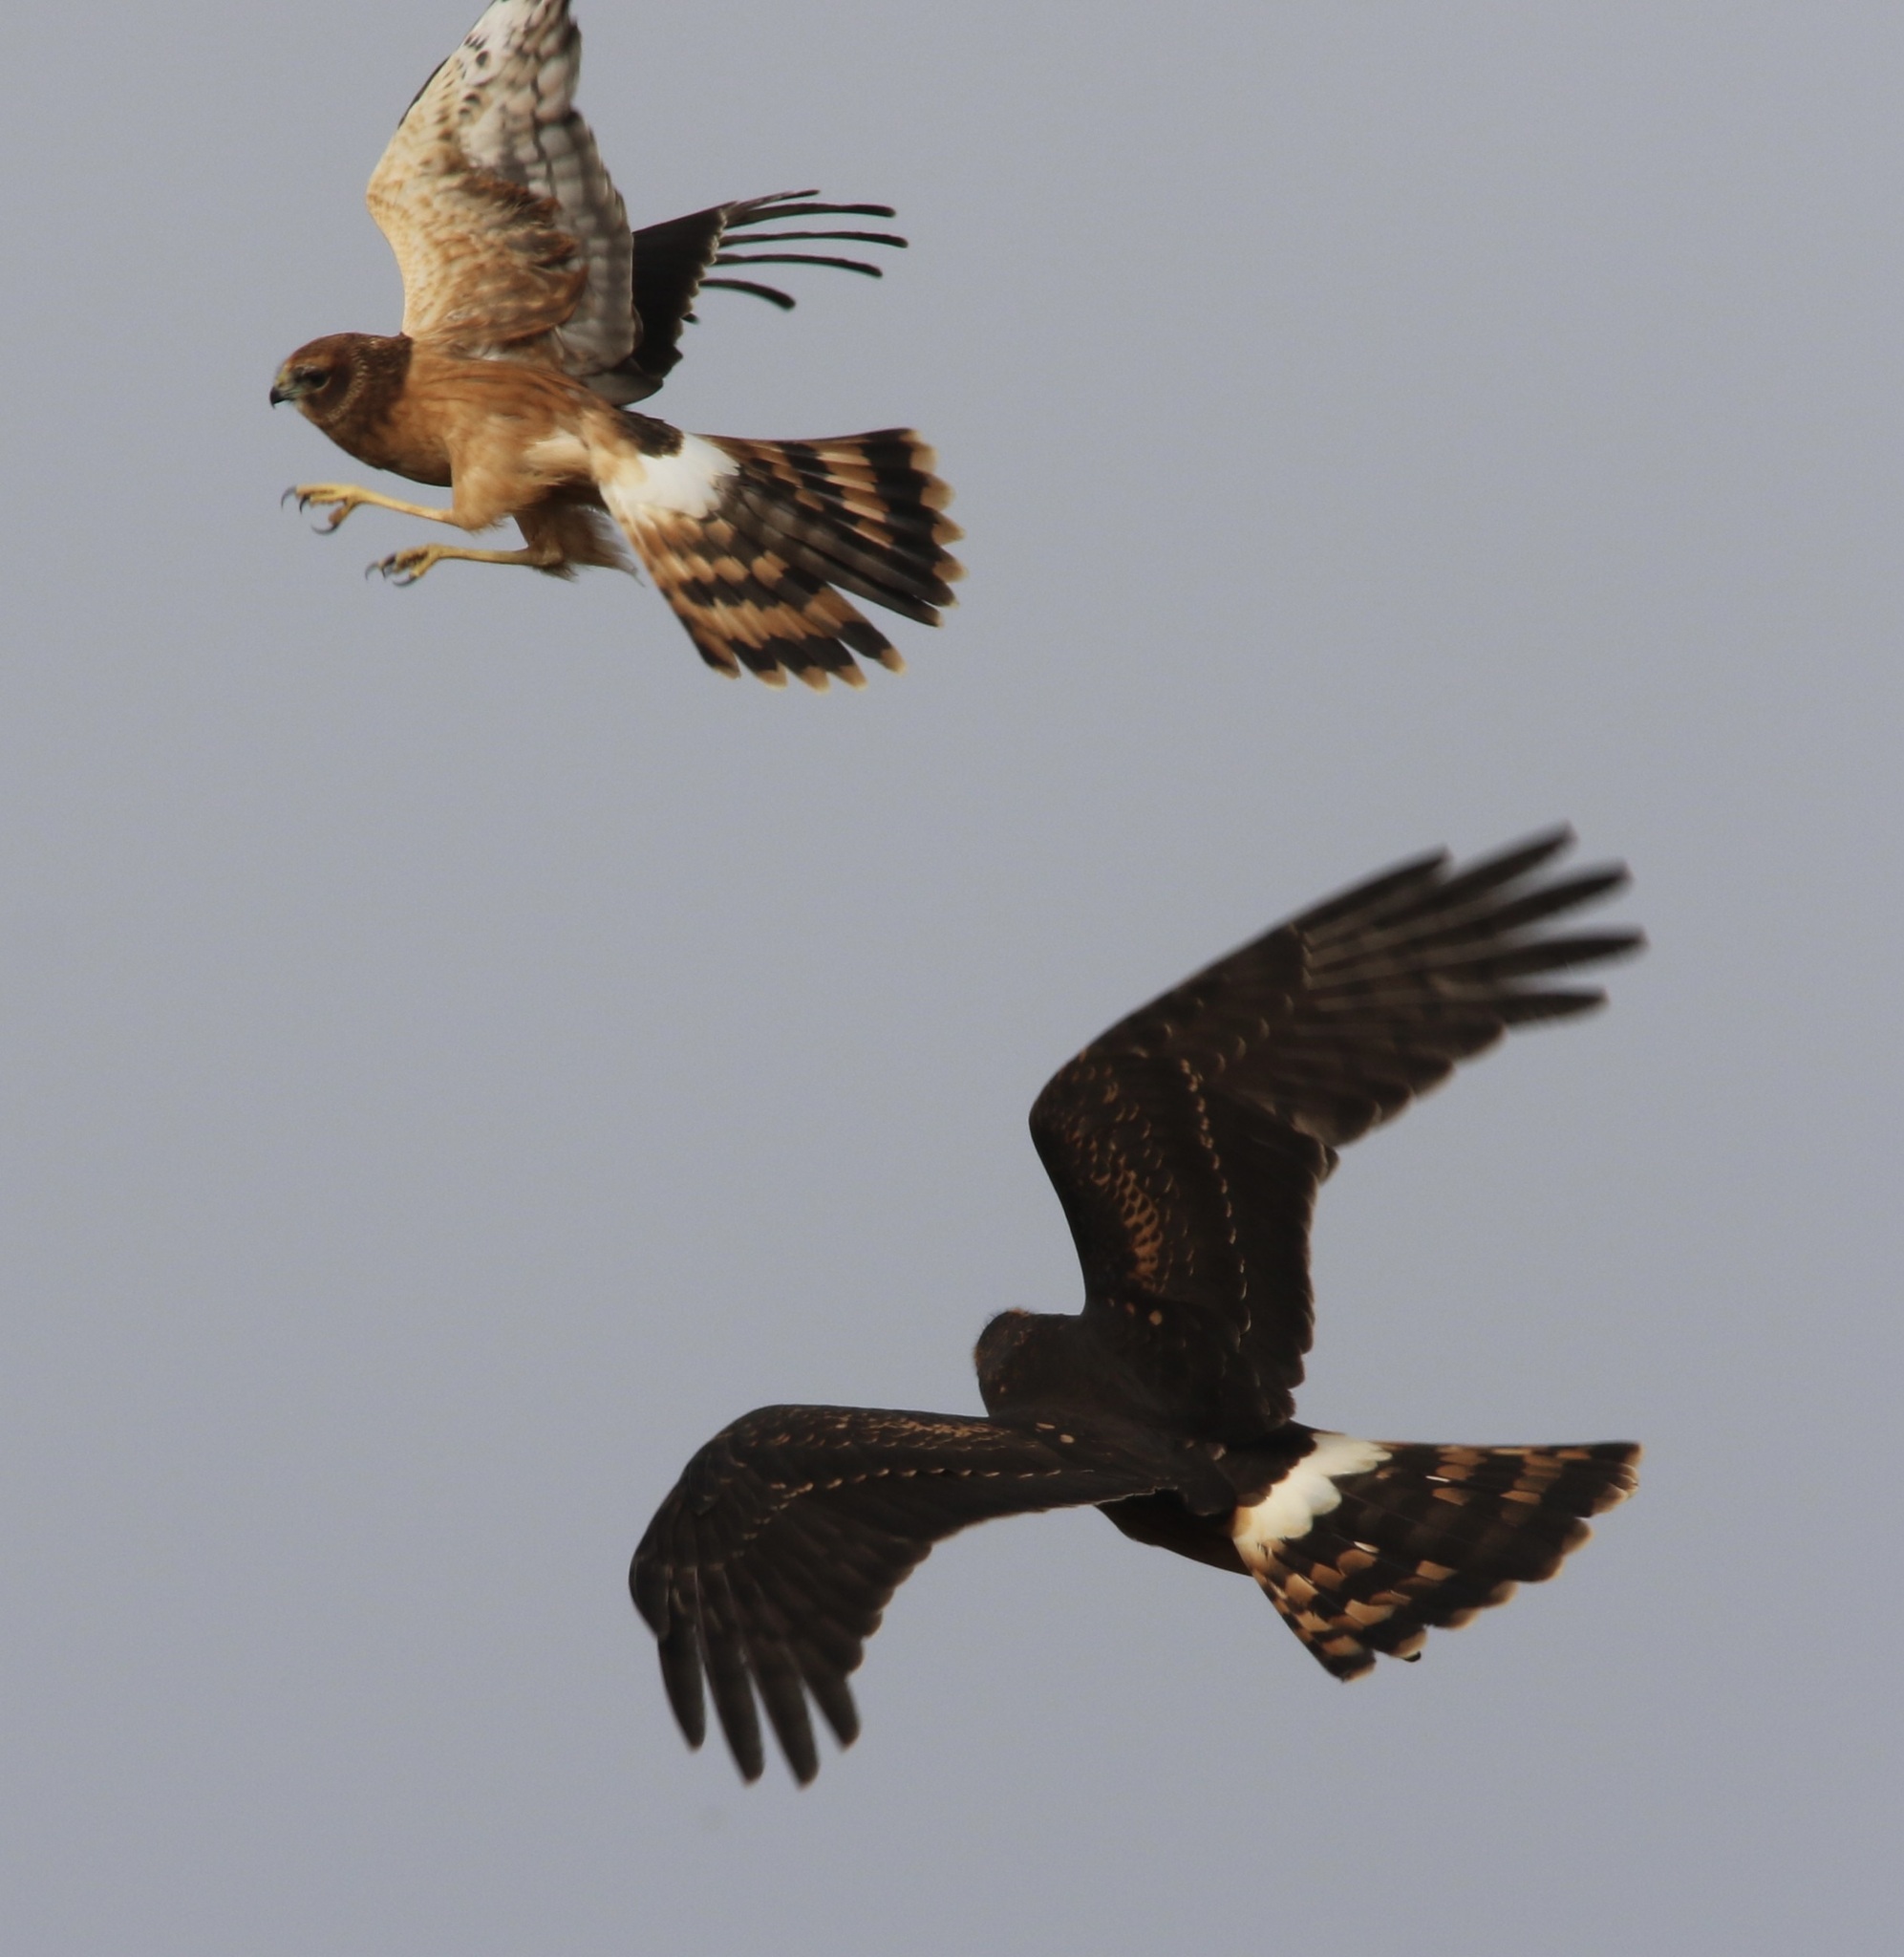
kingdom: Animalia
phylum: Chordata
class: Aves
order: Accipitriformes
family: Accipitridae
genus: Circus
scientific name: Circus cyaneus
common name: Hen harrier
